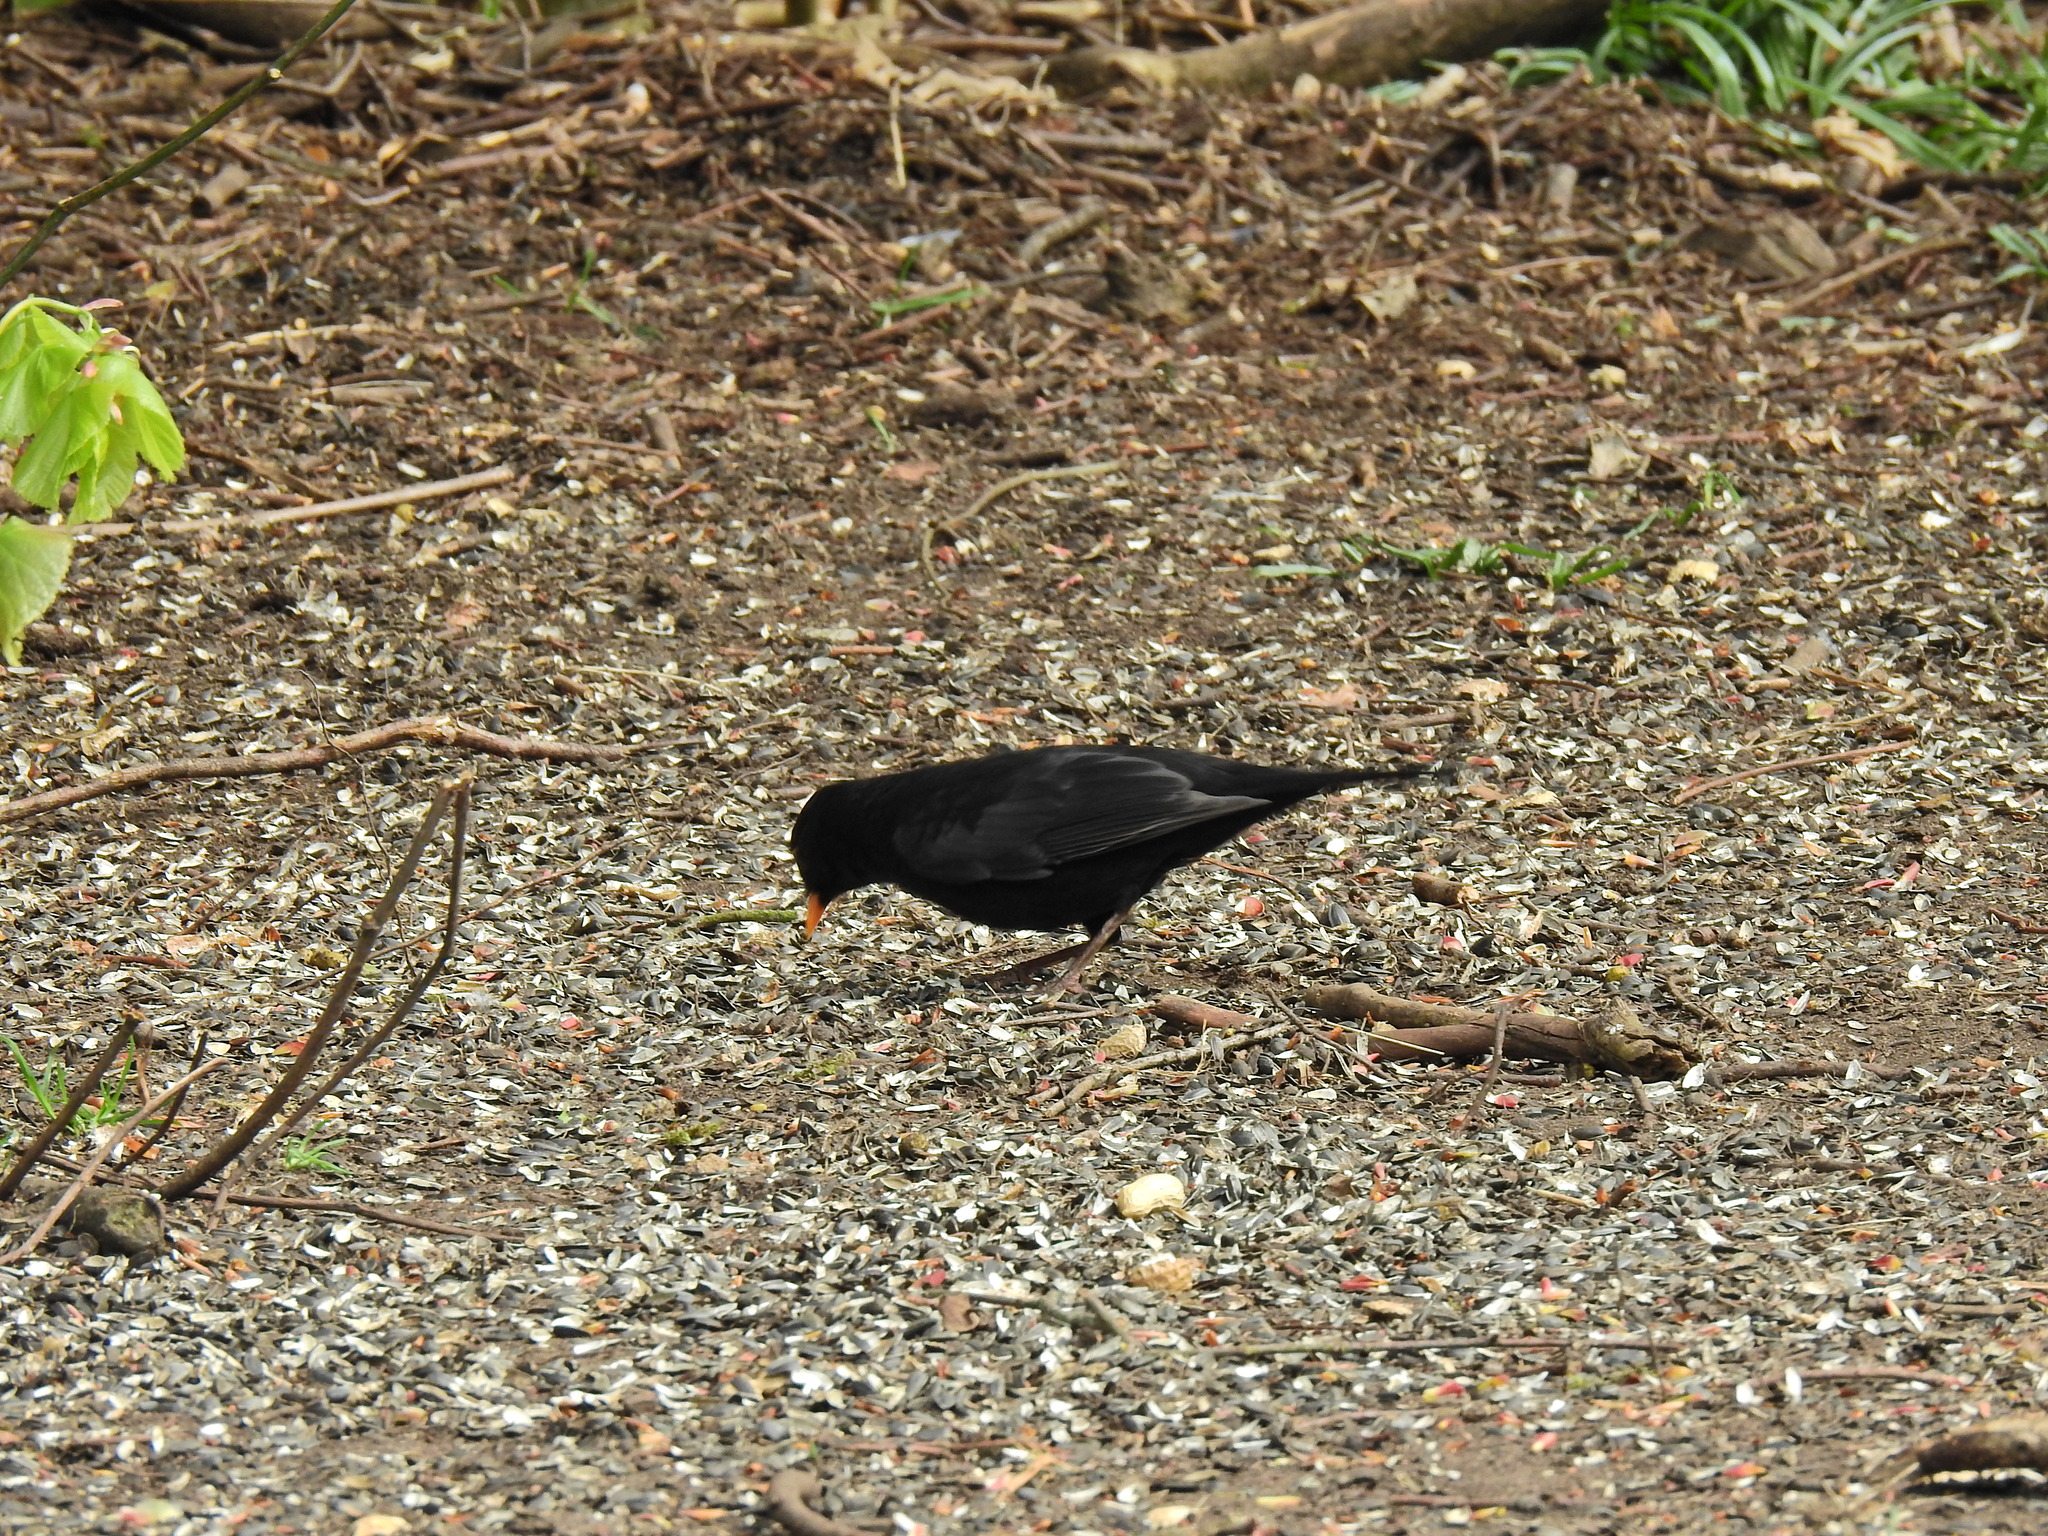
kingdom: Animalia
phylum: Chordata
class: Aves
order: Passeriformes
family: Turdidae
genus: Turdus
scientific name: Turdus merula
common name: Common blackbird
